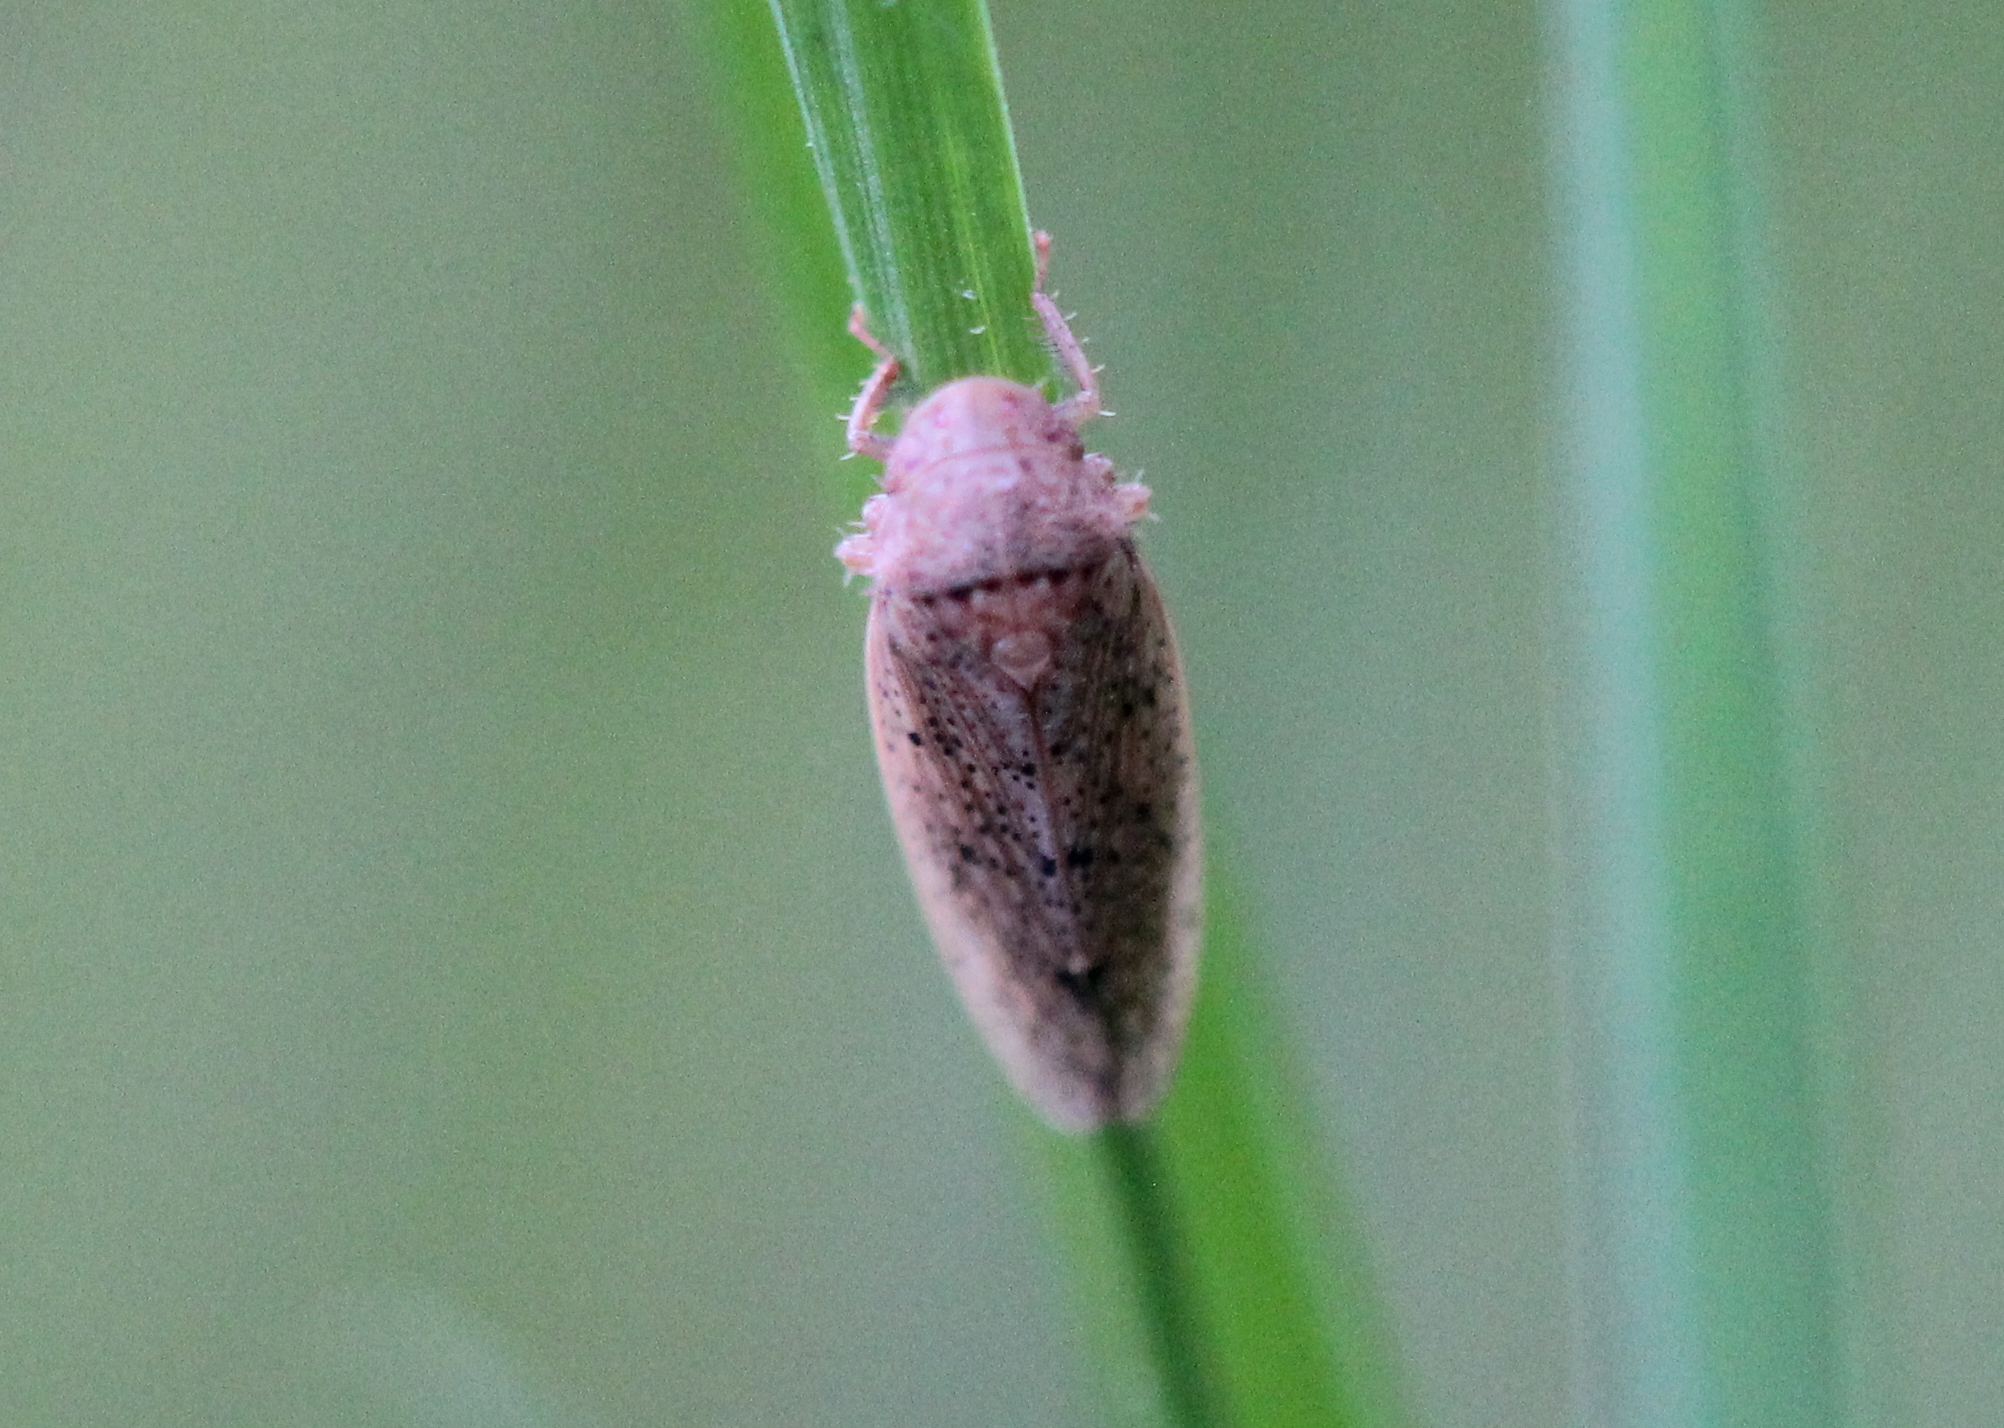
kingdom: Animalia
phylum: Arthropoda
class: Insecta
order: Hemiptera
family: Cicadellidae
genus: Ponana
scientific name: Ponana puncticollis
